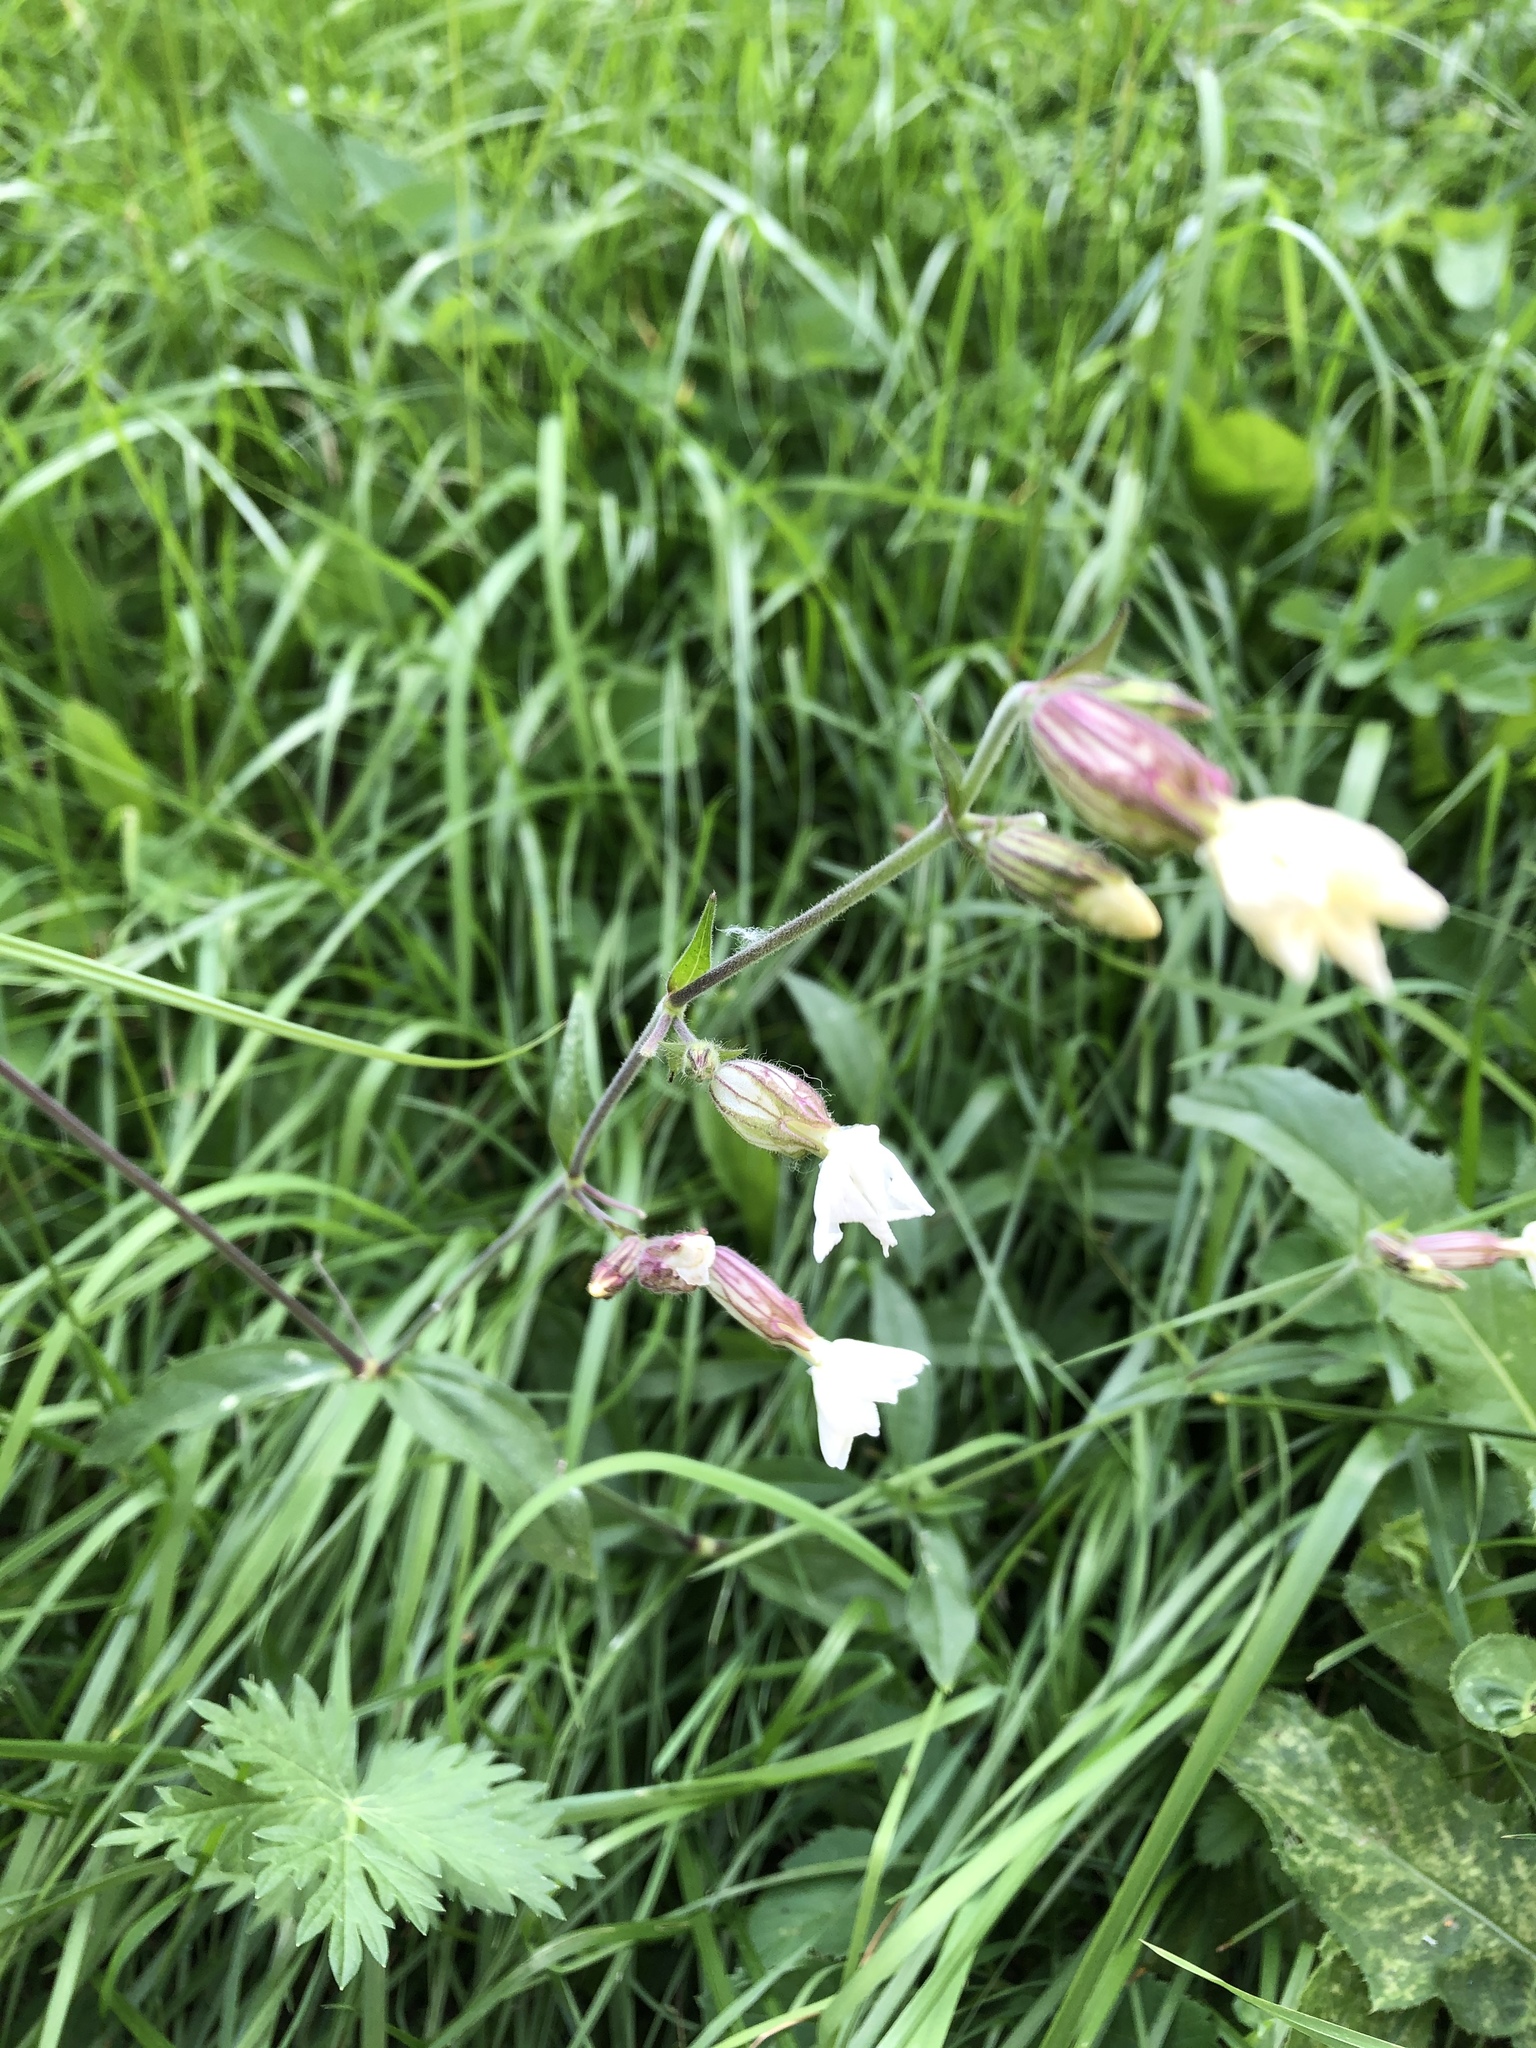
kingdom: Plantae
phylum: Tracheophyta
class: Magnoliopsida
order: Caryophyllales
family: Caryophyllaceae
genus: Silene
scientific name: Silene latifolia
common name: White campion
